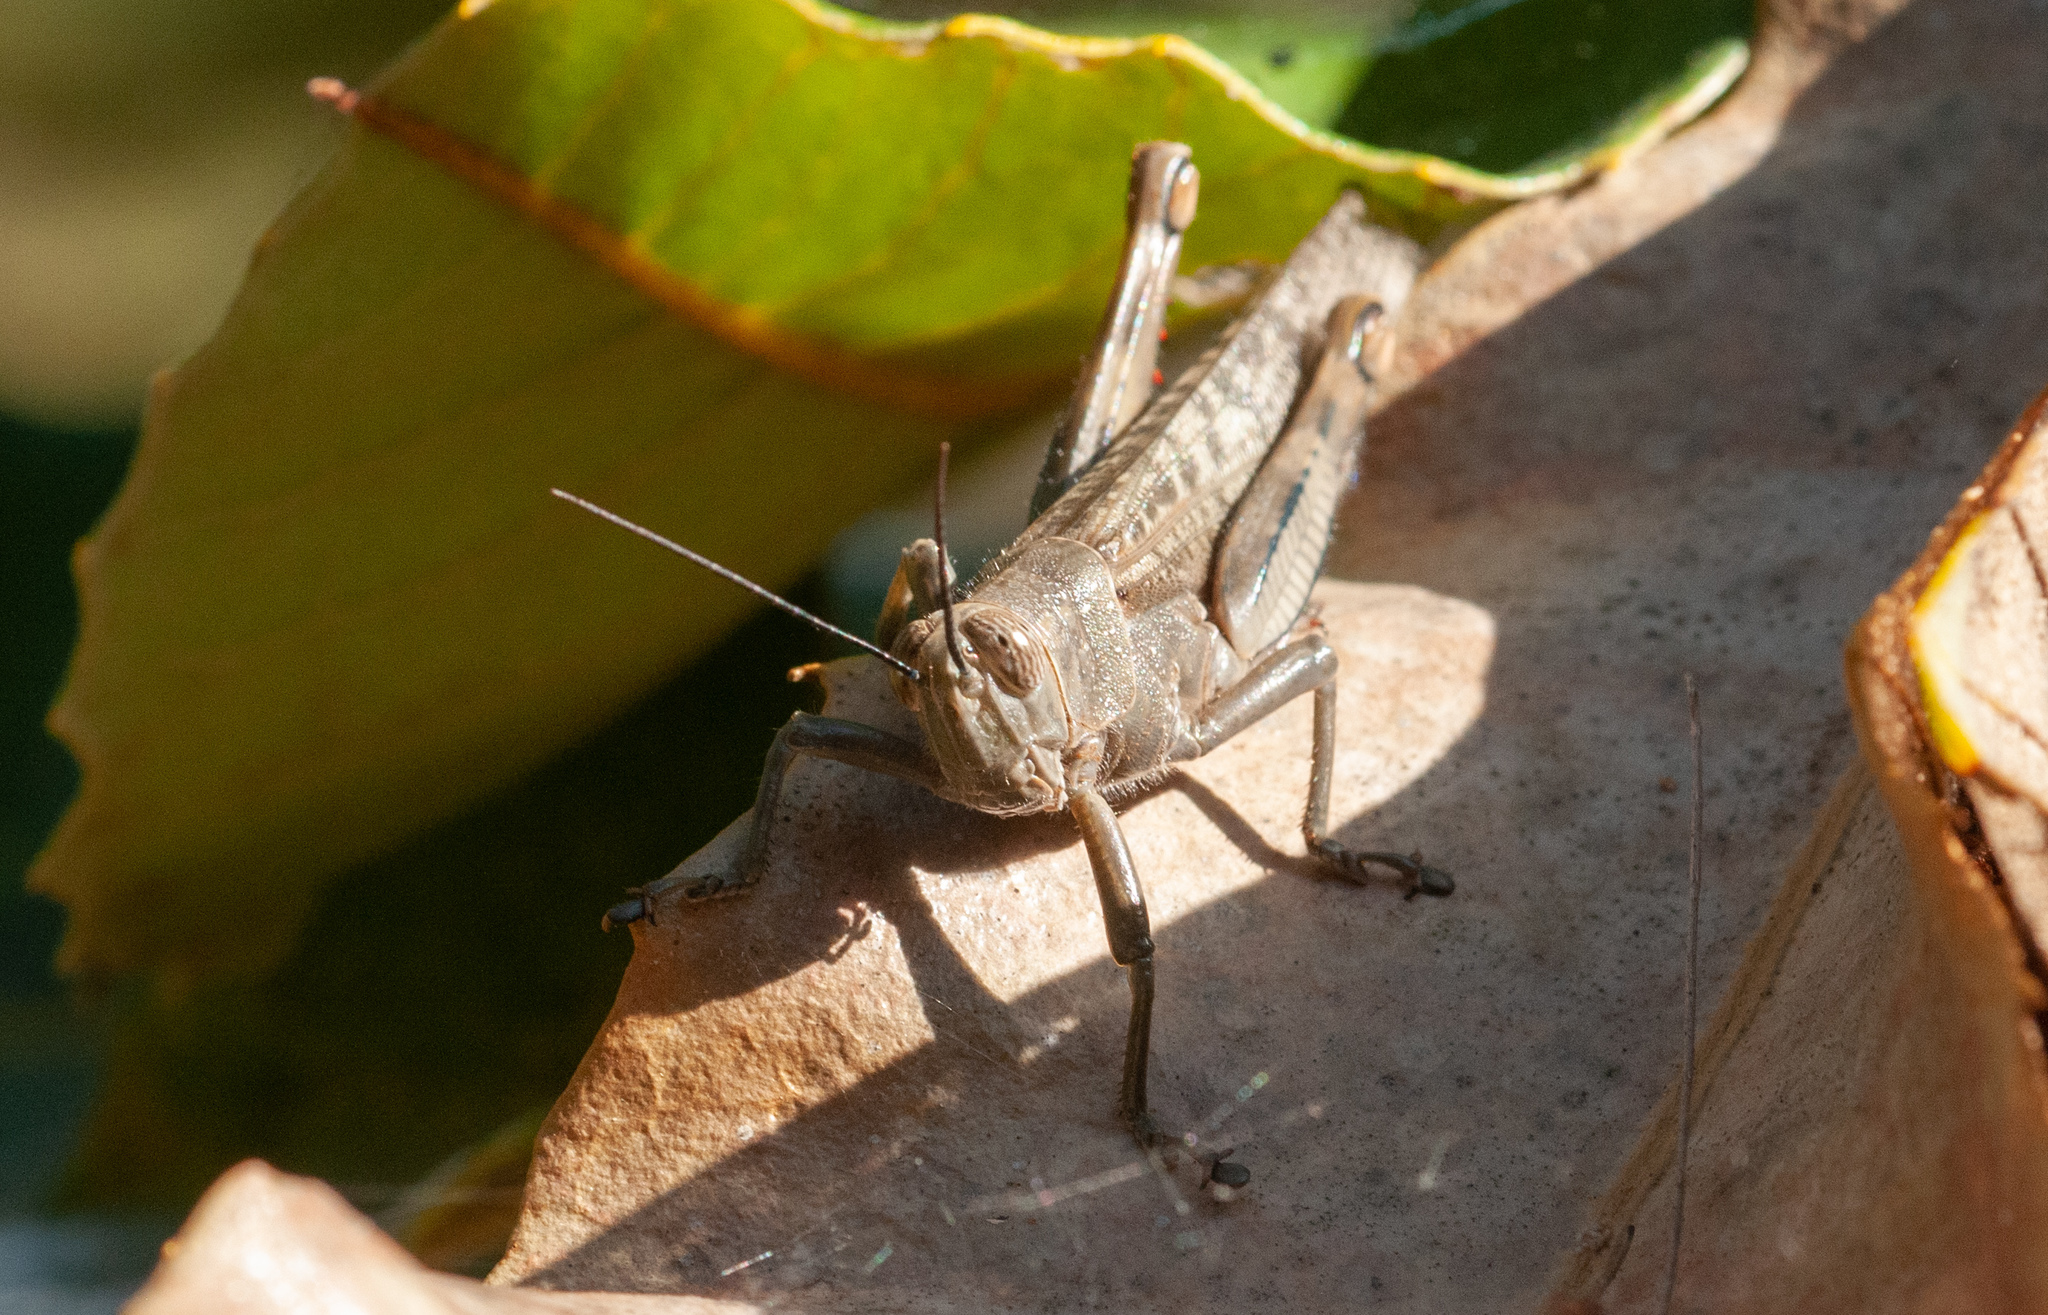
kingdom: Animalia
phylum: Arthropoda
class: Insecta
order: Orthoptera
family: Acrididae
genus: Valanga
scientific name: Valanga irregularis
